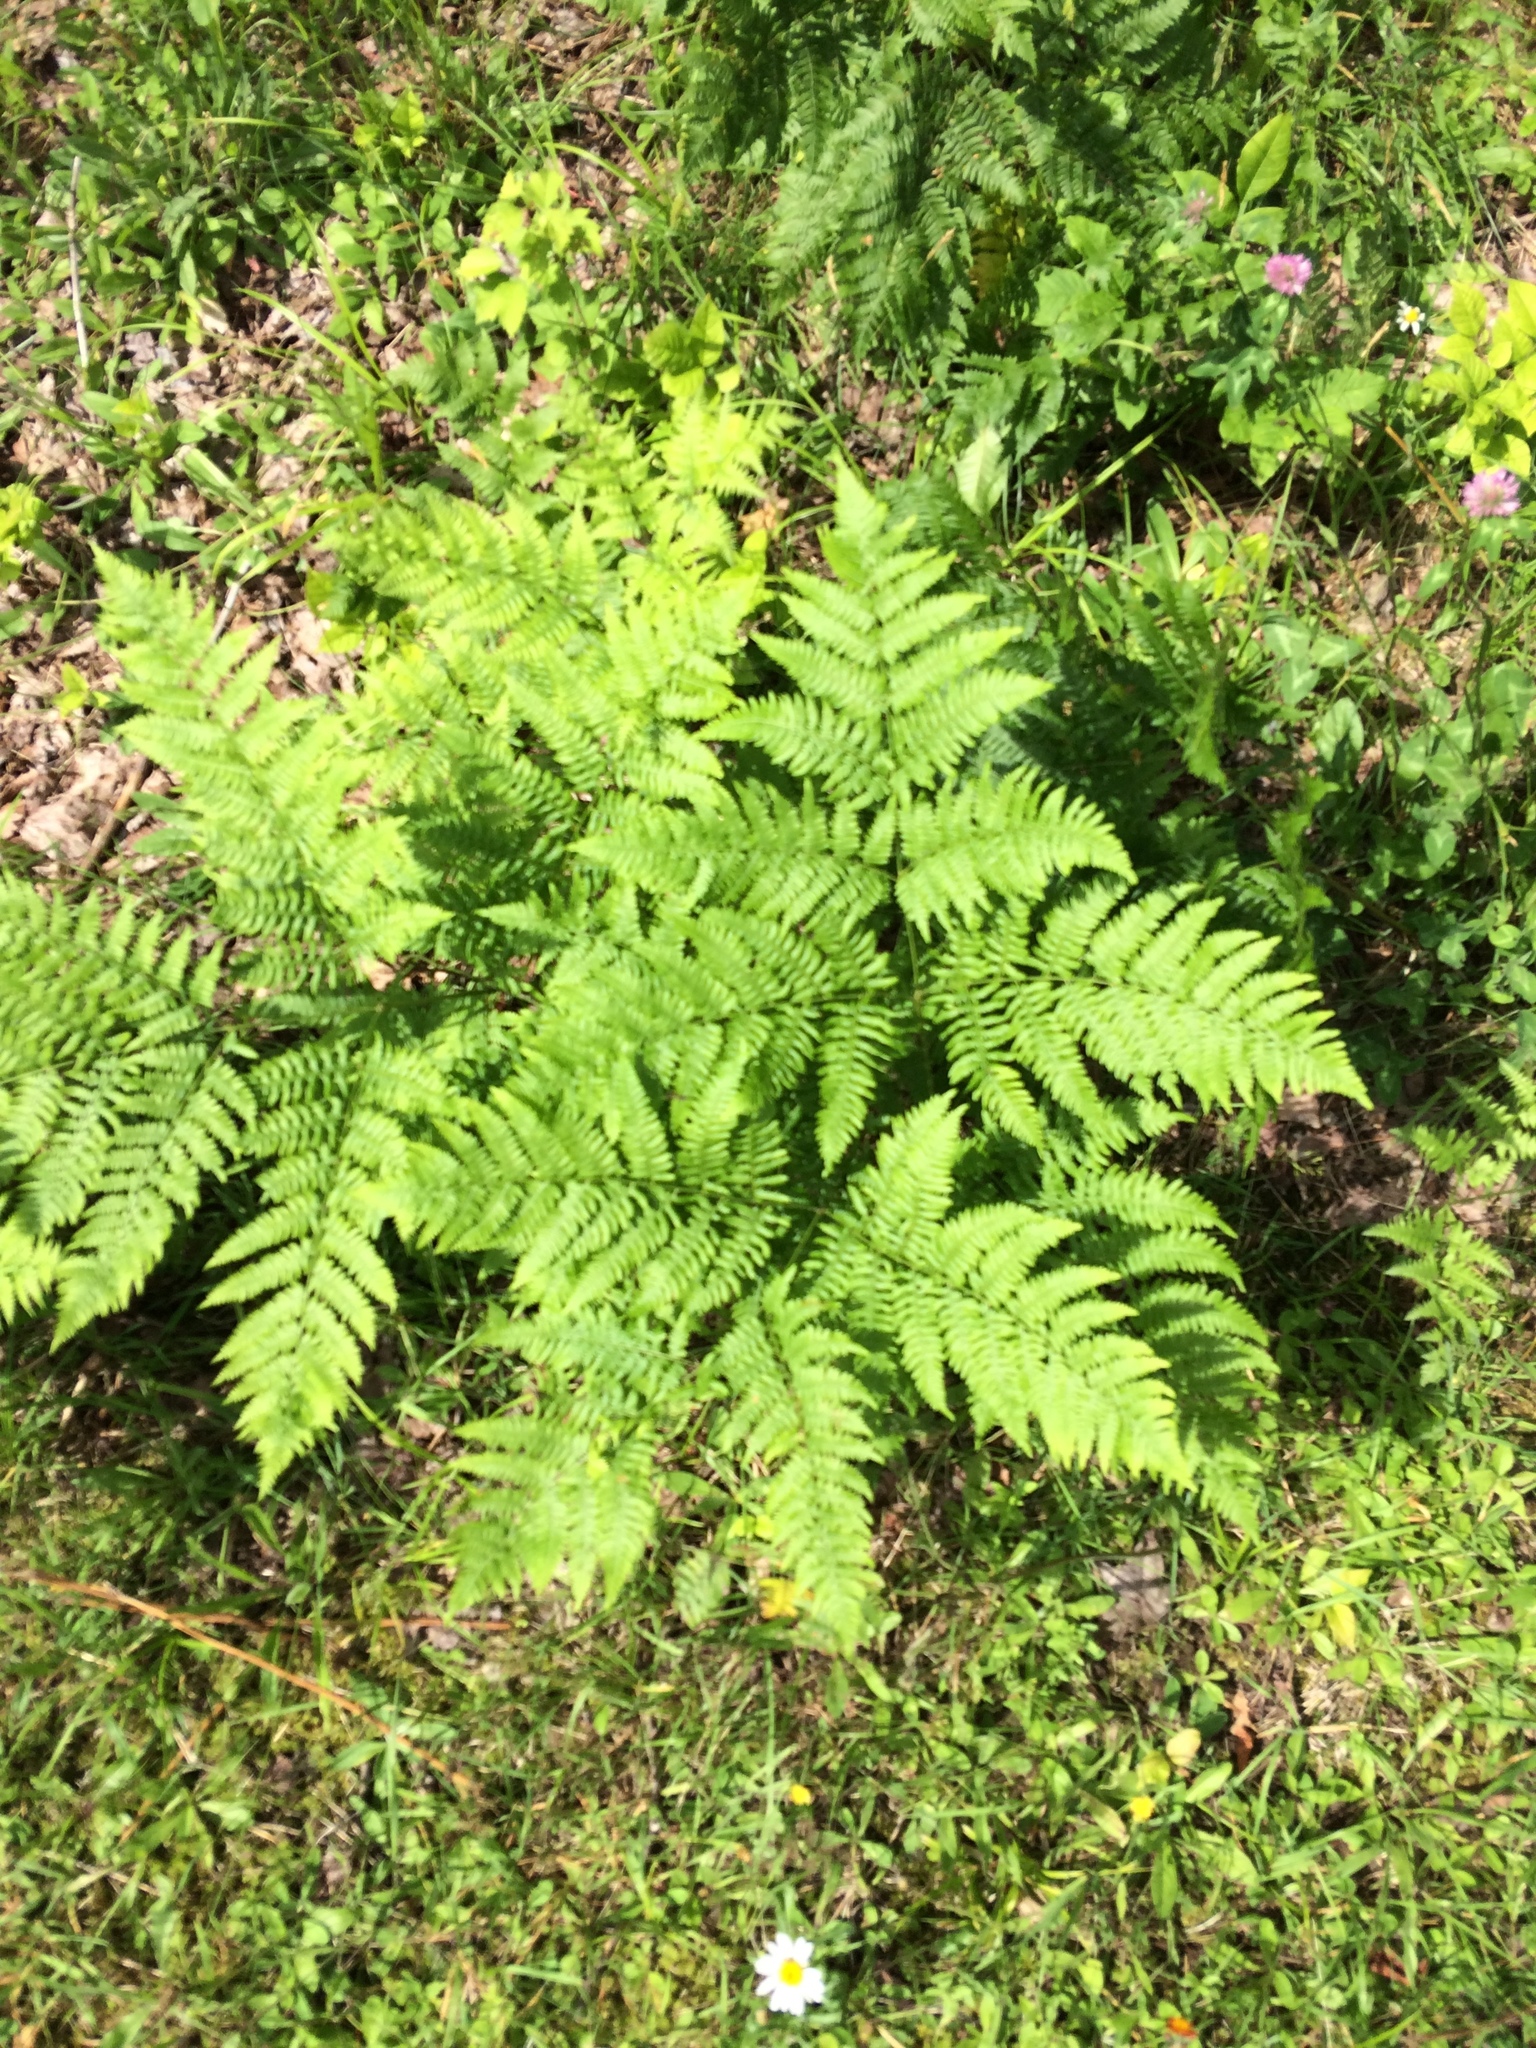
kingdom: Plantae
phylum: Tracheophyta
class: Polypodiopsida
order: Polypodiales
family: Dennstaedtiaceae
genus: Pteridium
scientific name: Pteridium aquilinum
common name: Bracken
